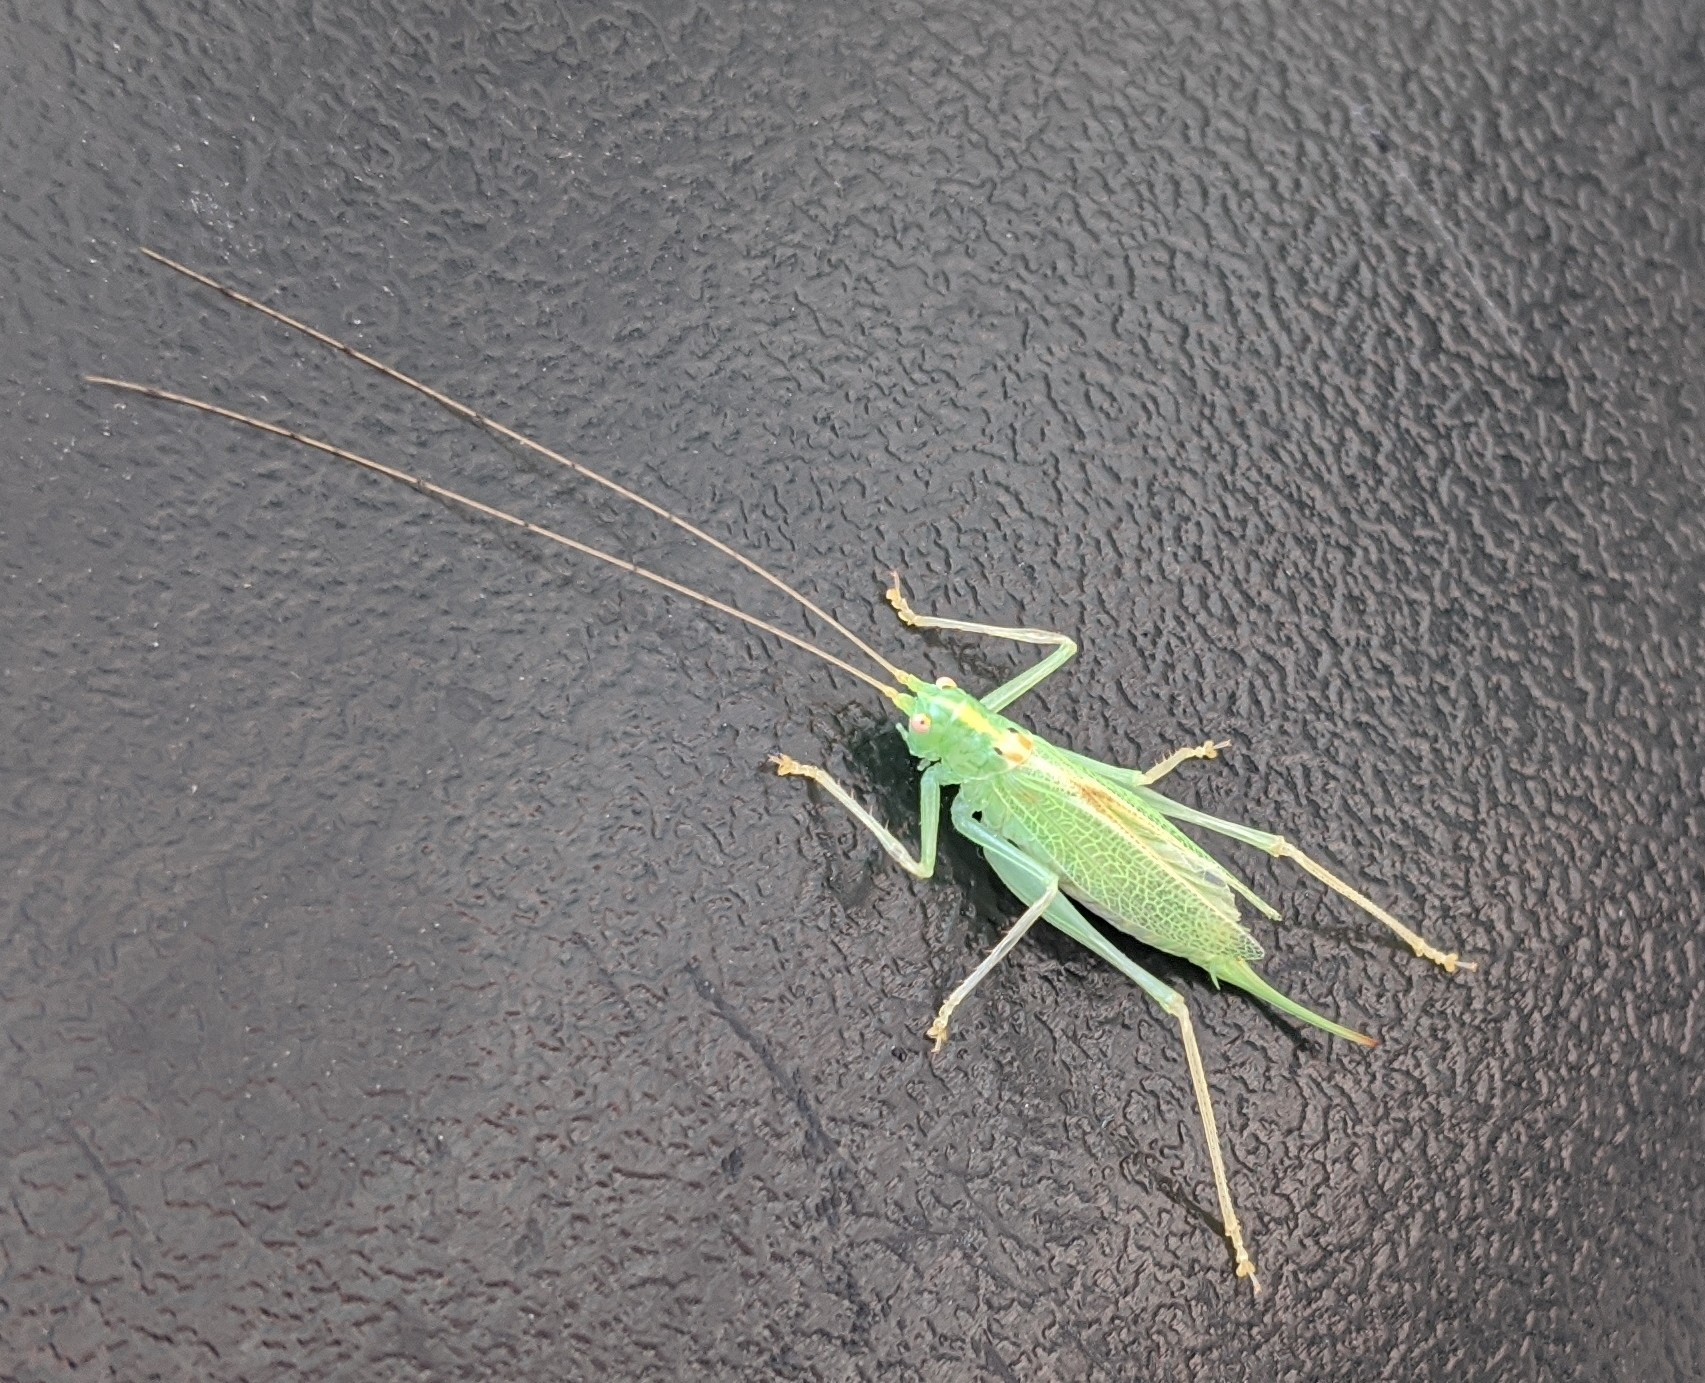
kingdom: Animalia
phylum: Arthropoda
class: Insecta
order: Orthoptera
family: Tettigoniidae
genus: Meconema
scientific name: Meconema thalassinum
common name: Oak bush-cricket
